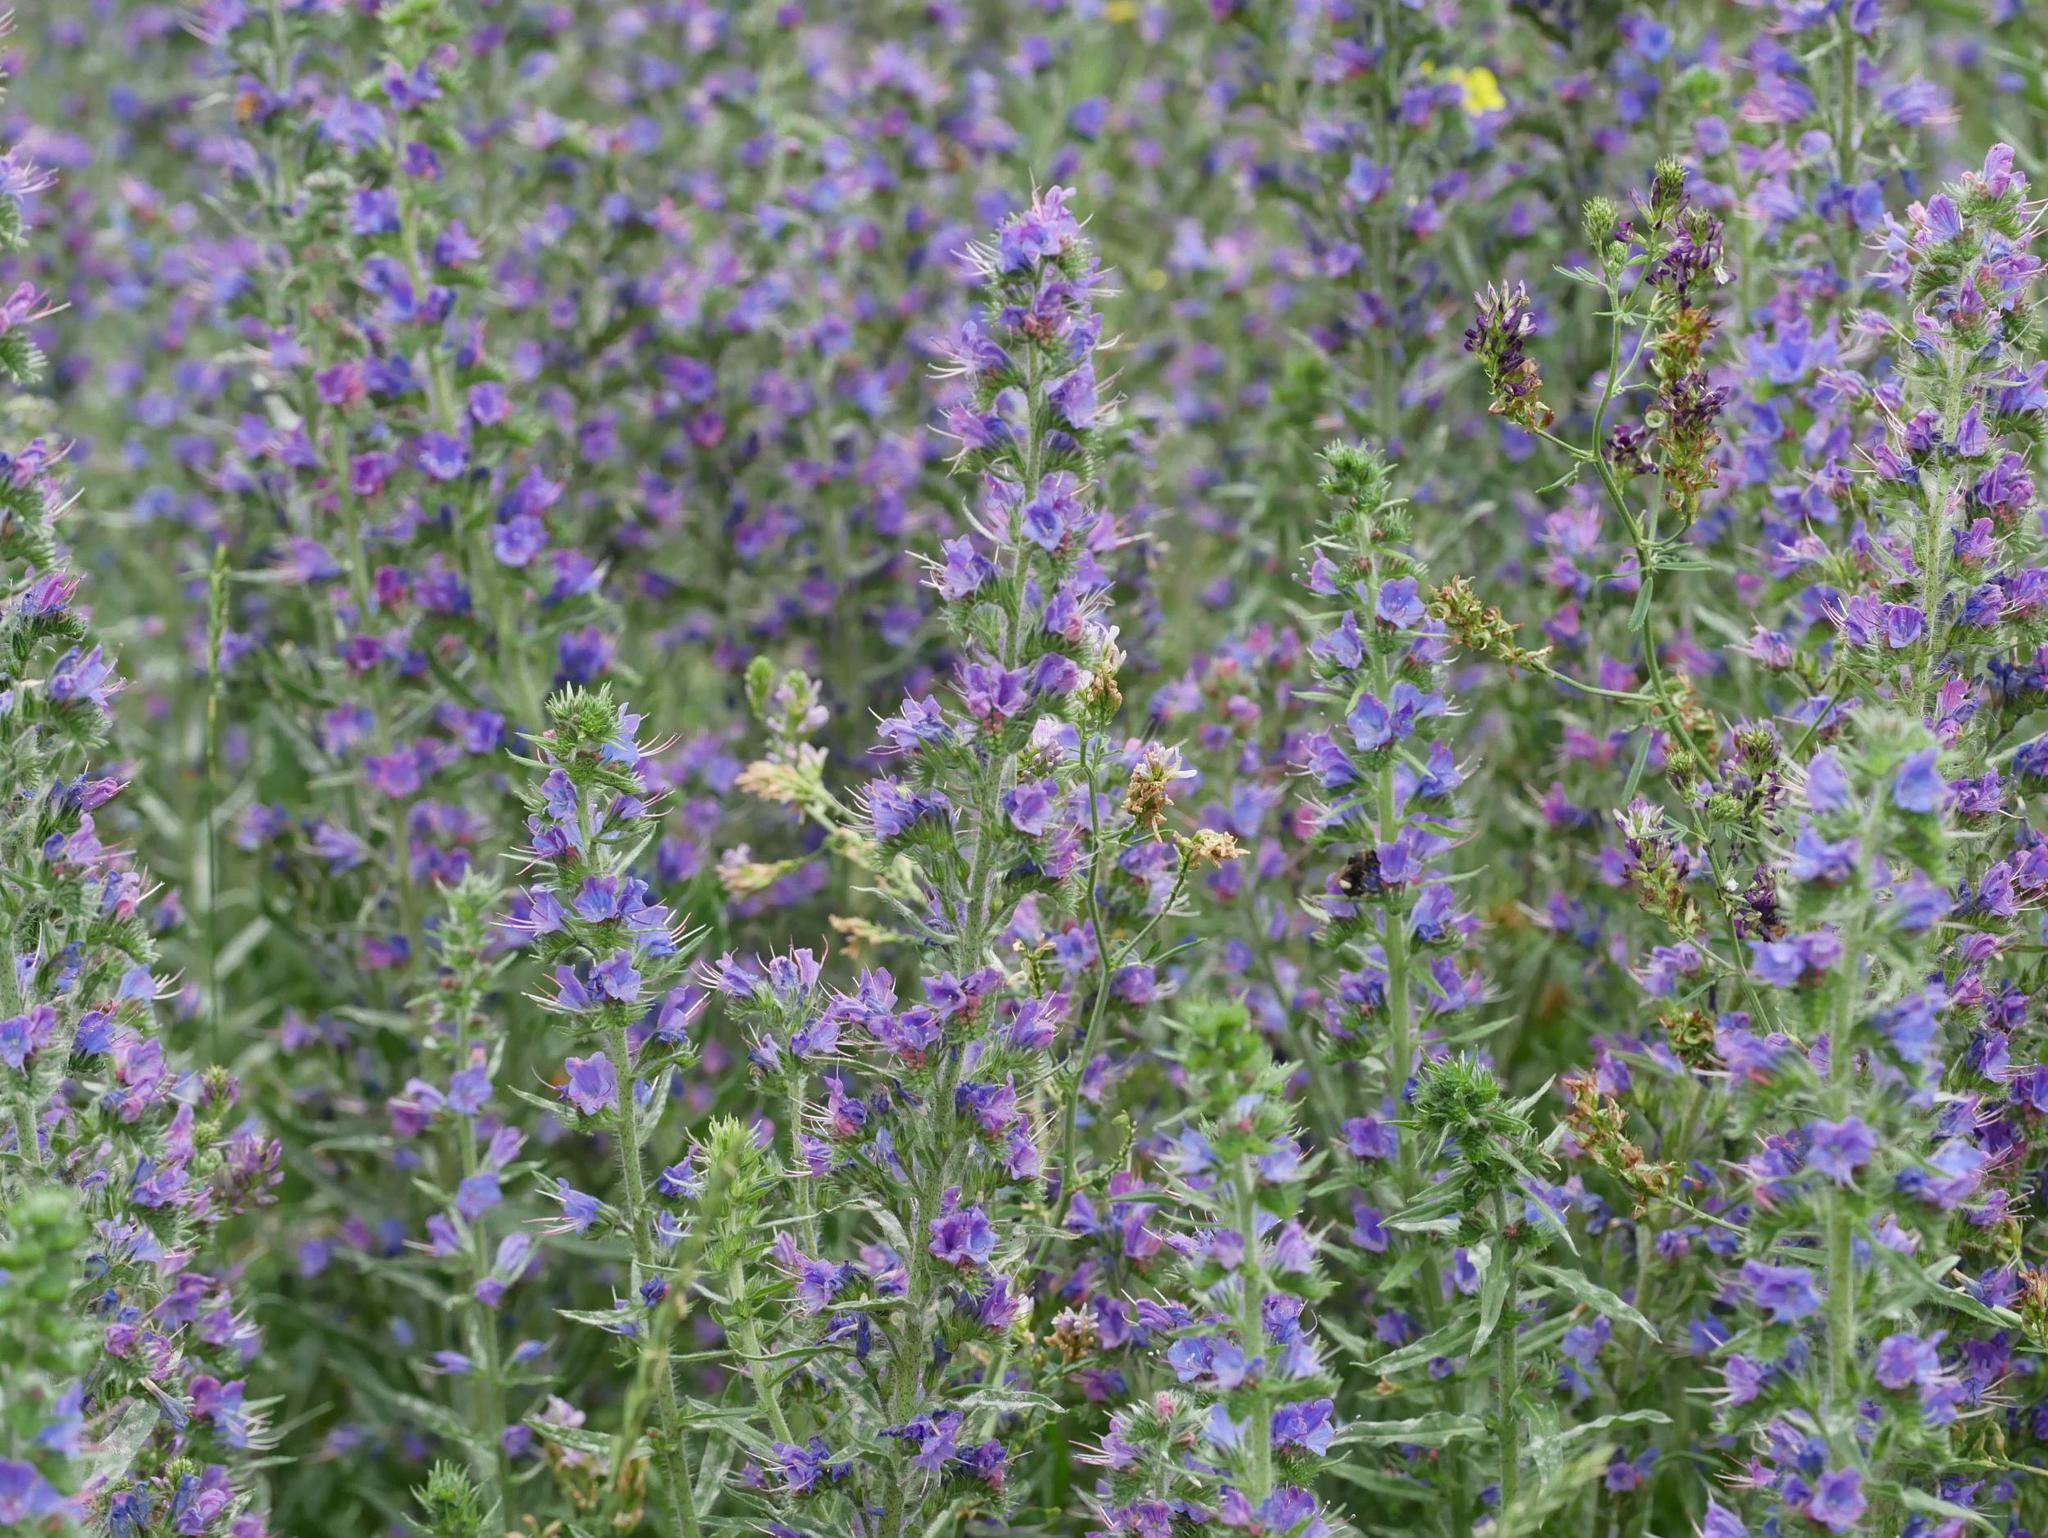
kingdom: Plantae
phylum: Tracheophyta
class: Magnoliopsida
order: Boraginales
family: Boraginaceae
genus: Echium
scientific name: Echium vulgare
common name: Common viper's bugloss
